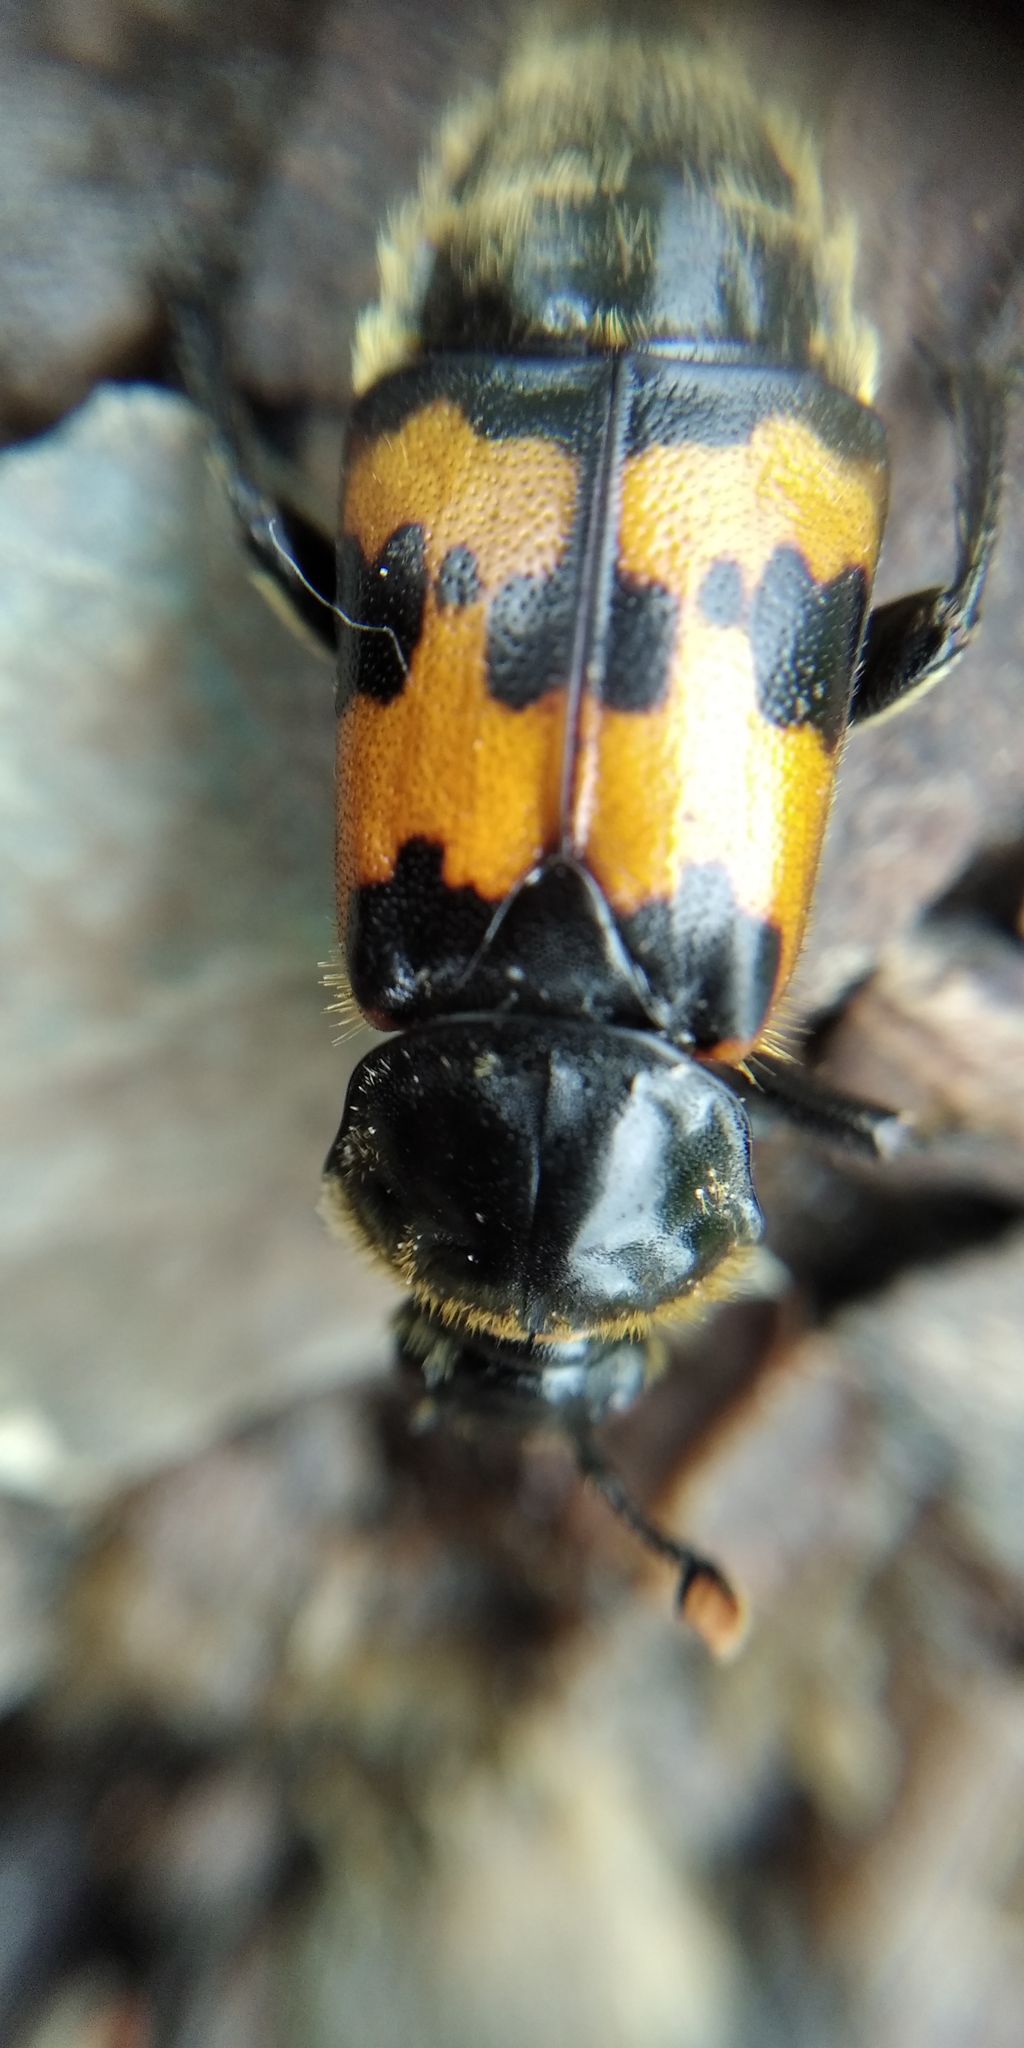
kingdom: Animalia
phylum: Arthropoda
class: Insecta
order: Coleoptera
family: Staphylinidae
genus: Nicrophorus
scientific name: Nicrophorus vespillo
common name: Common burying beetle
